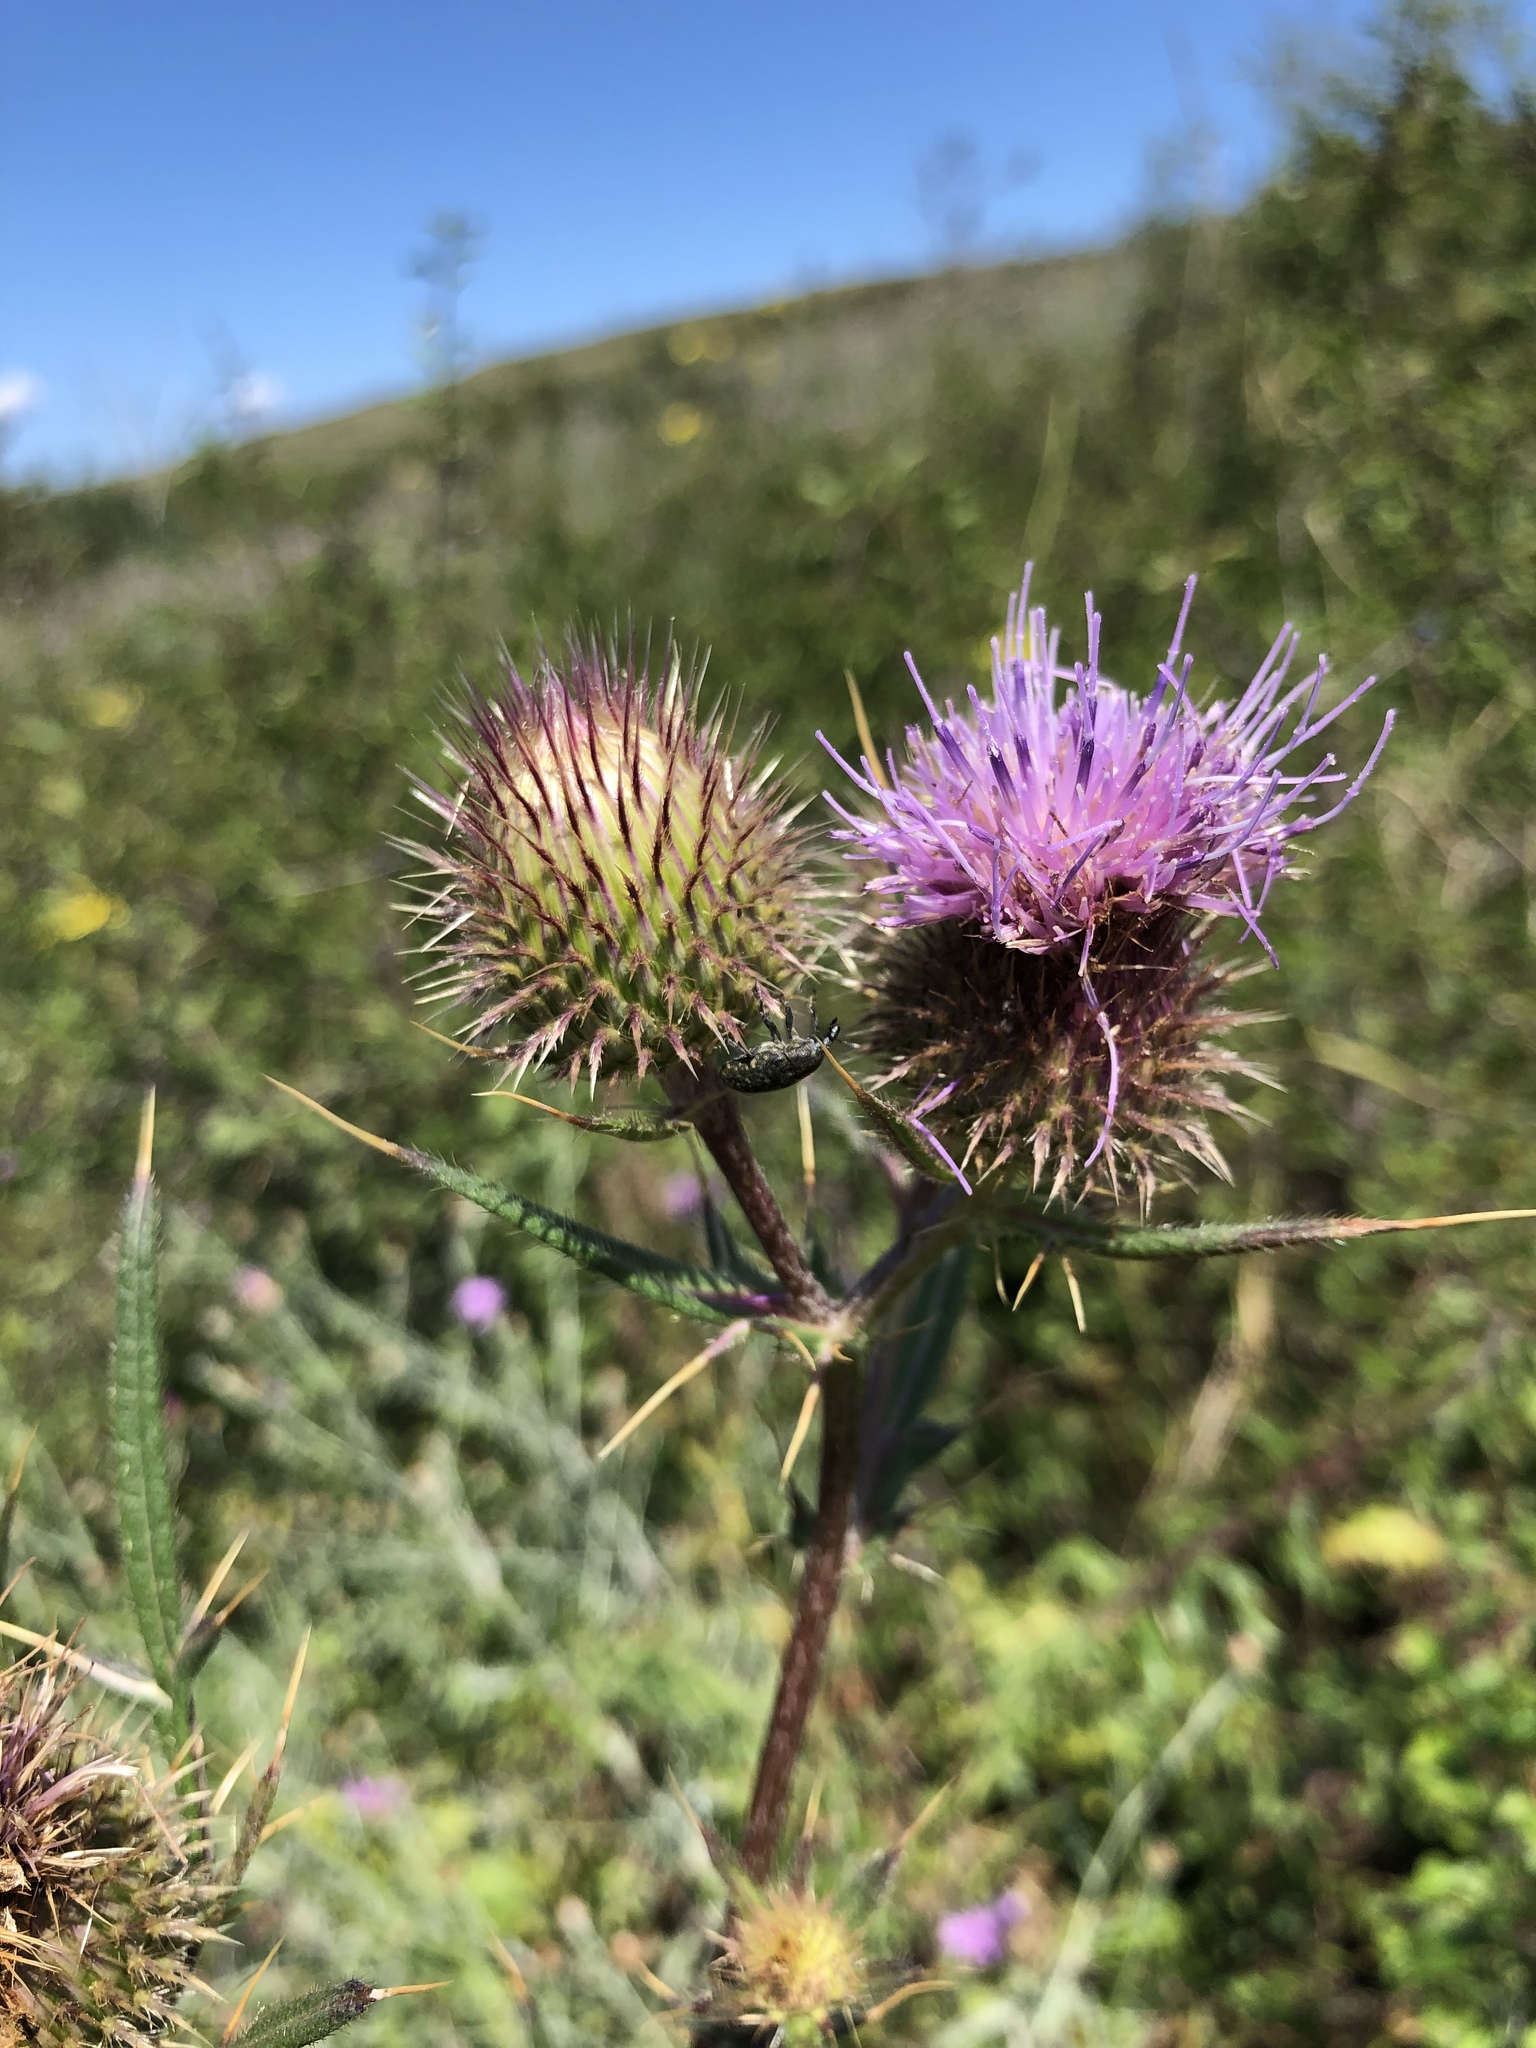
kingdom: Plantae
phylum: Tracheophyta
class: Magnoliopsida
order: Asterales
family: Asteraceae
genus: Lophiolepis
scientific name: Lophiolepis furiens
